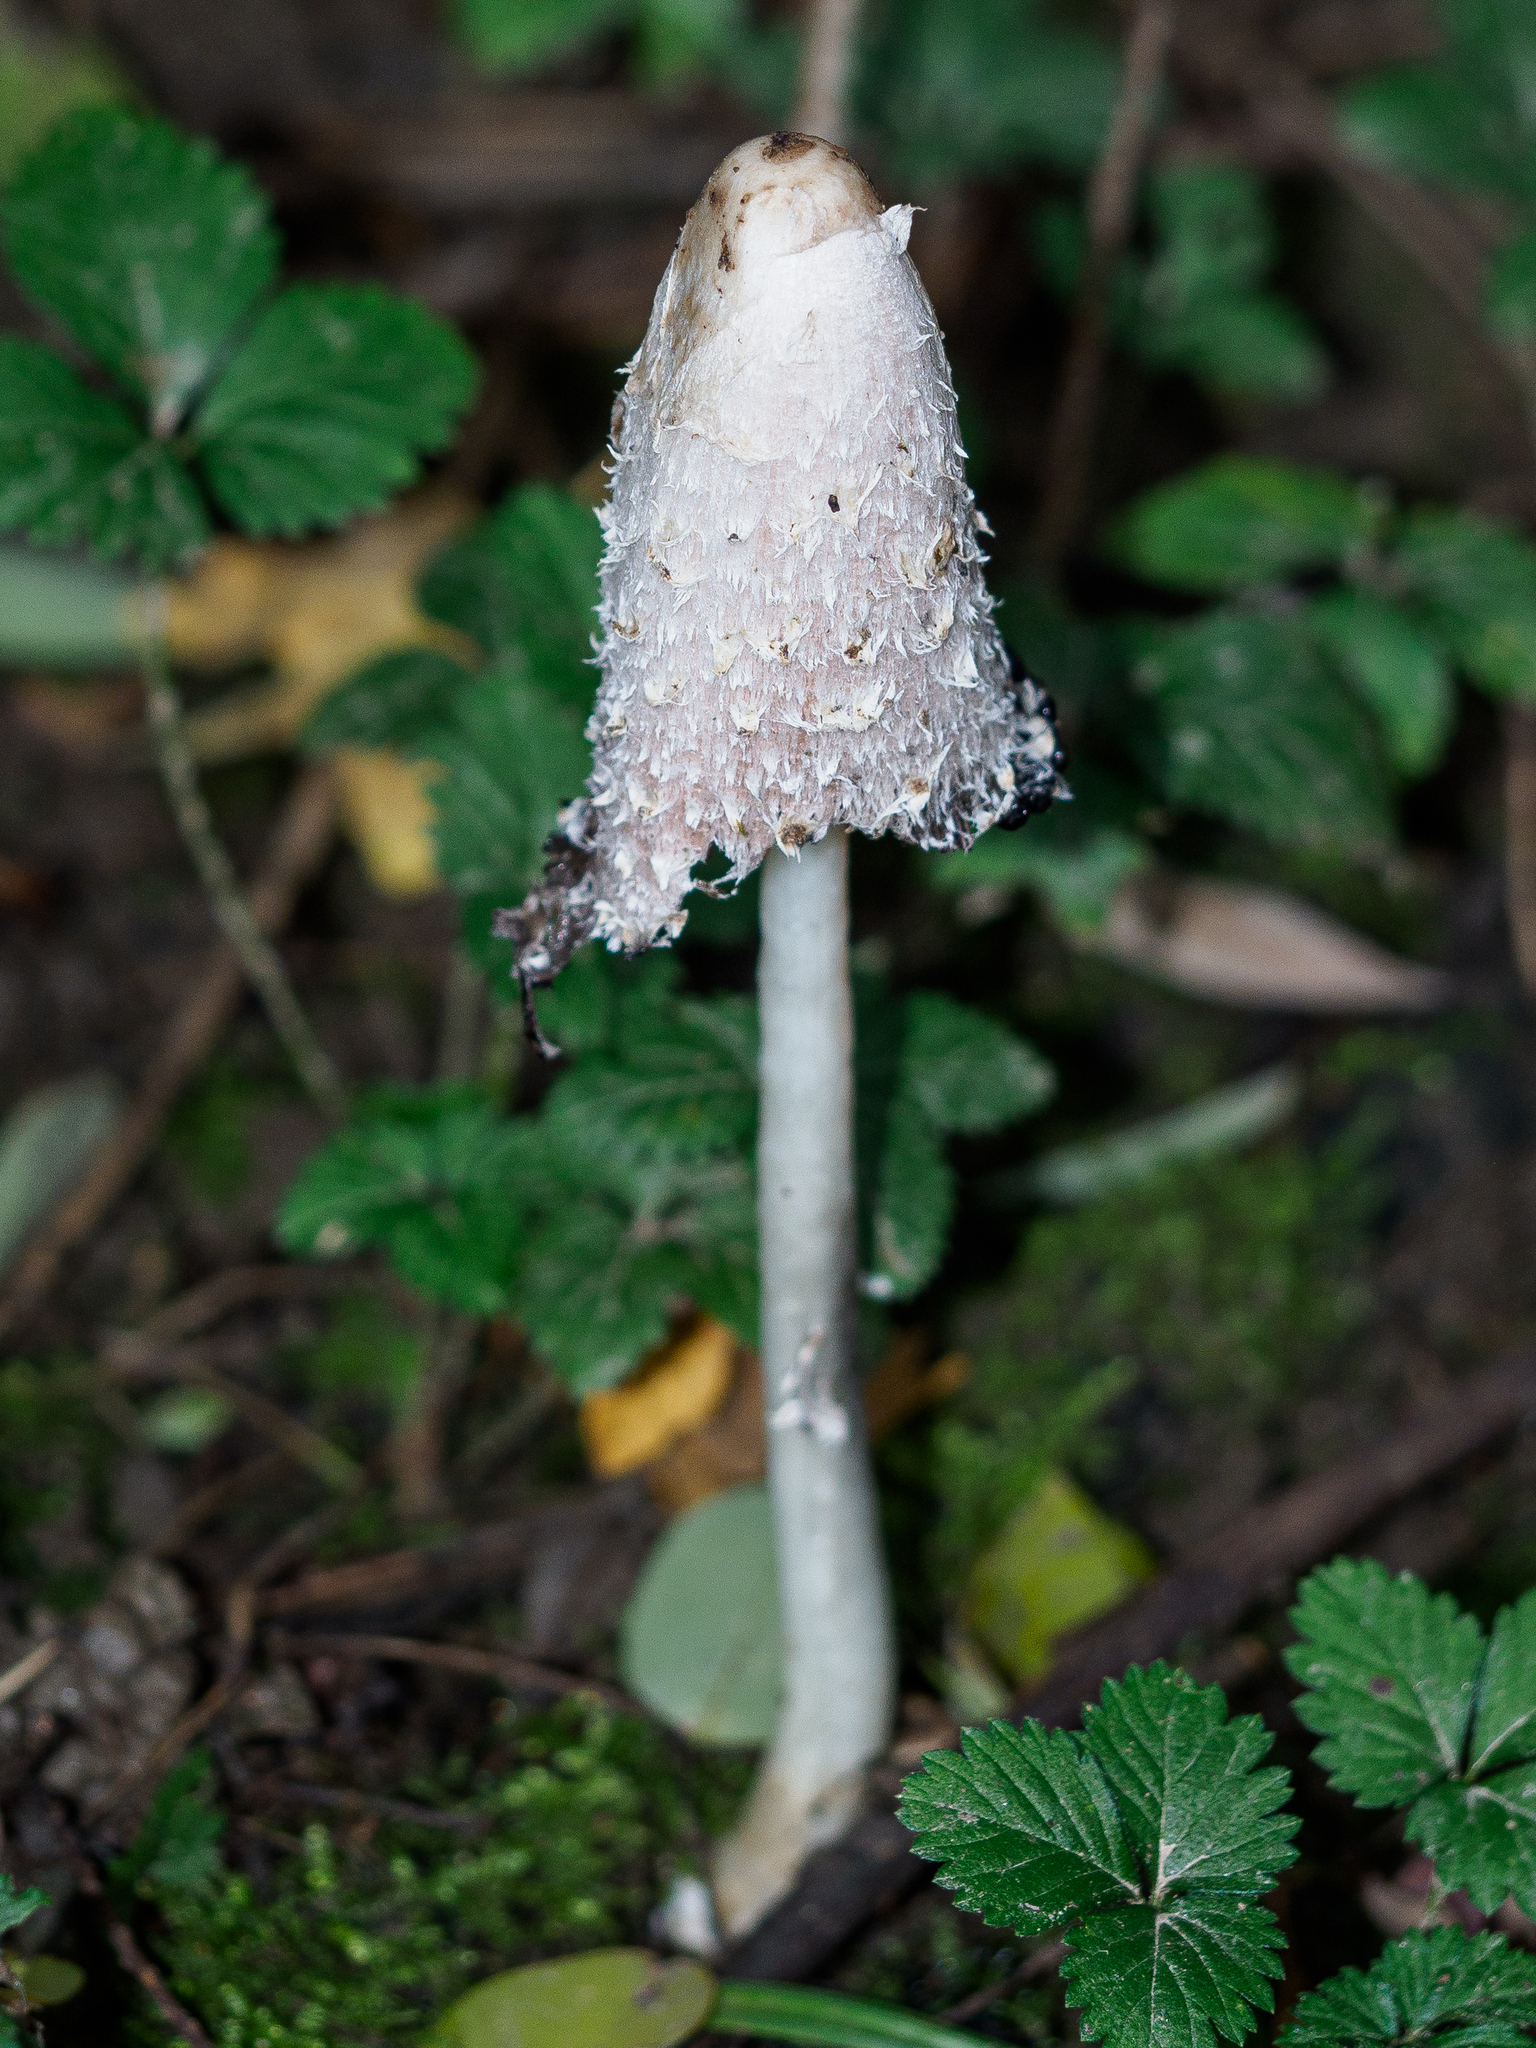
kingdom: Fungi
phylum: Basidiomycota
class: Agaricomycetes
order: Agaricales
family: Agaricaceae
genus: Coprinus
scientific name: Coprinus comatus
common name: Lawyer's wig
